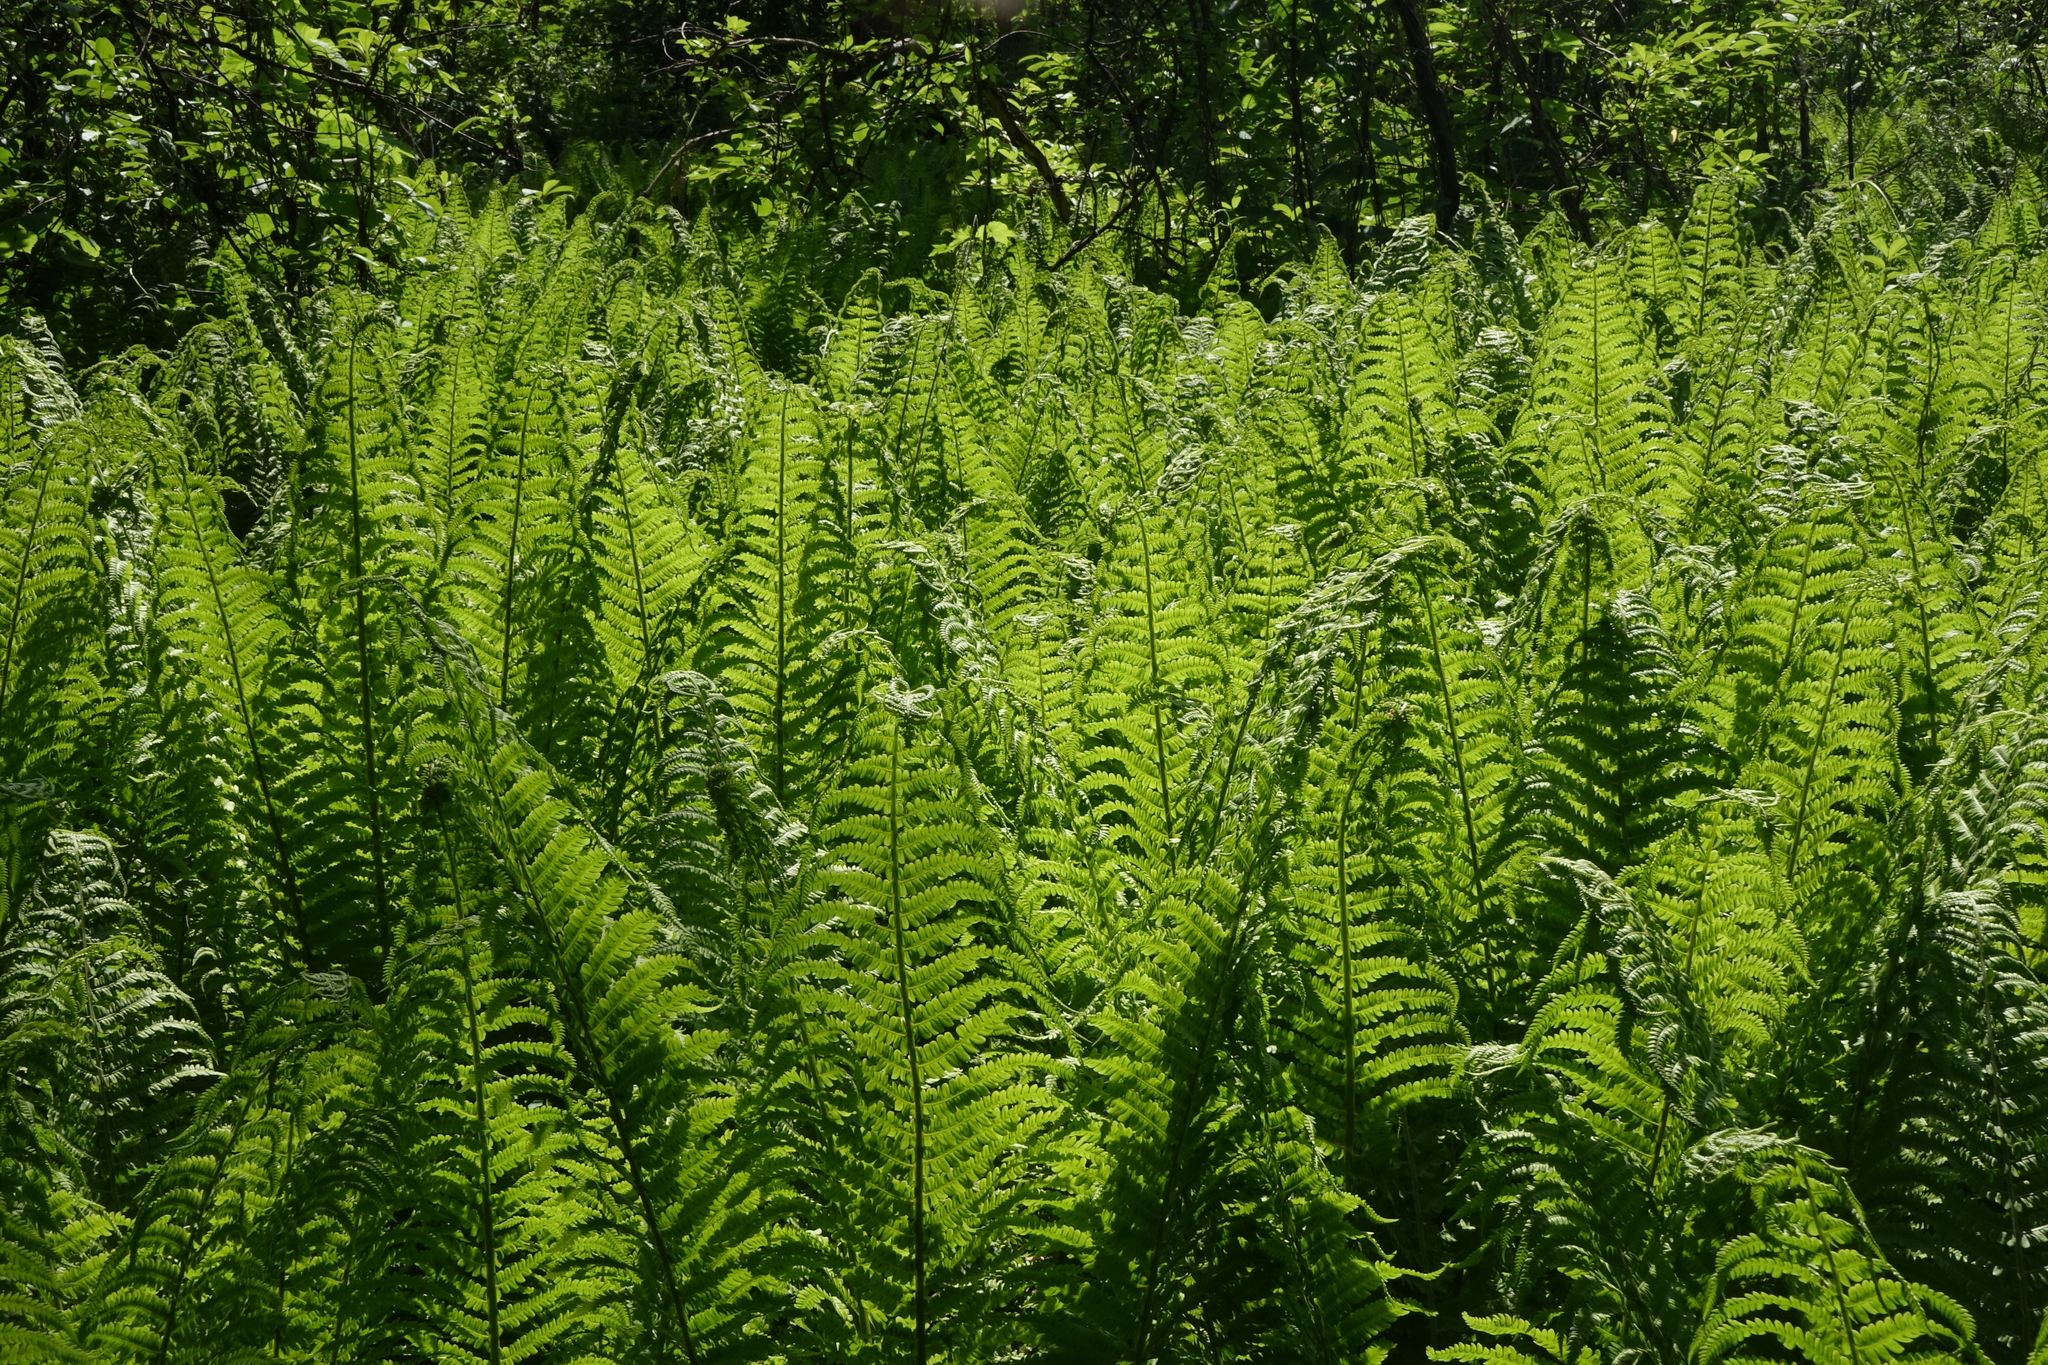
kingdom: Plantae
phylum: Tracheophyta
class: Polypodiopsida
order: Polypodiales
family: Onocleaceae
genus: Matteuccia
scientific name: Matteuccia struthiopteris
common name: Ostrich fern
